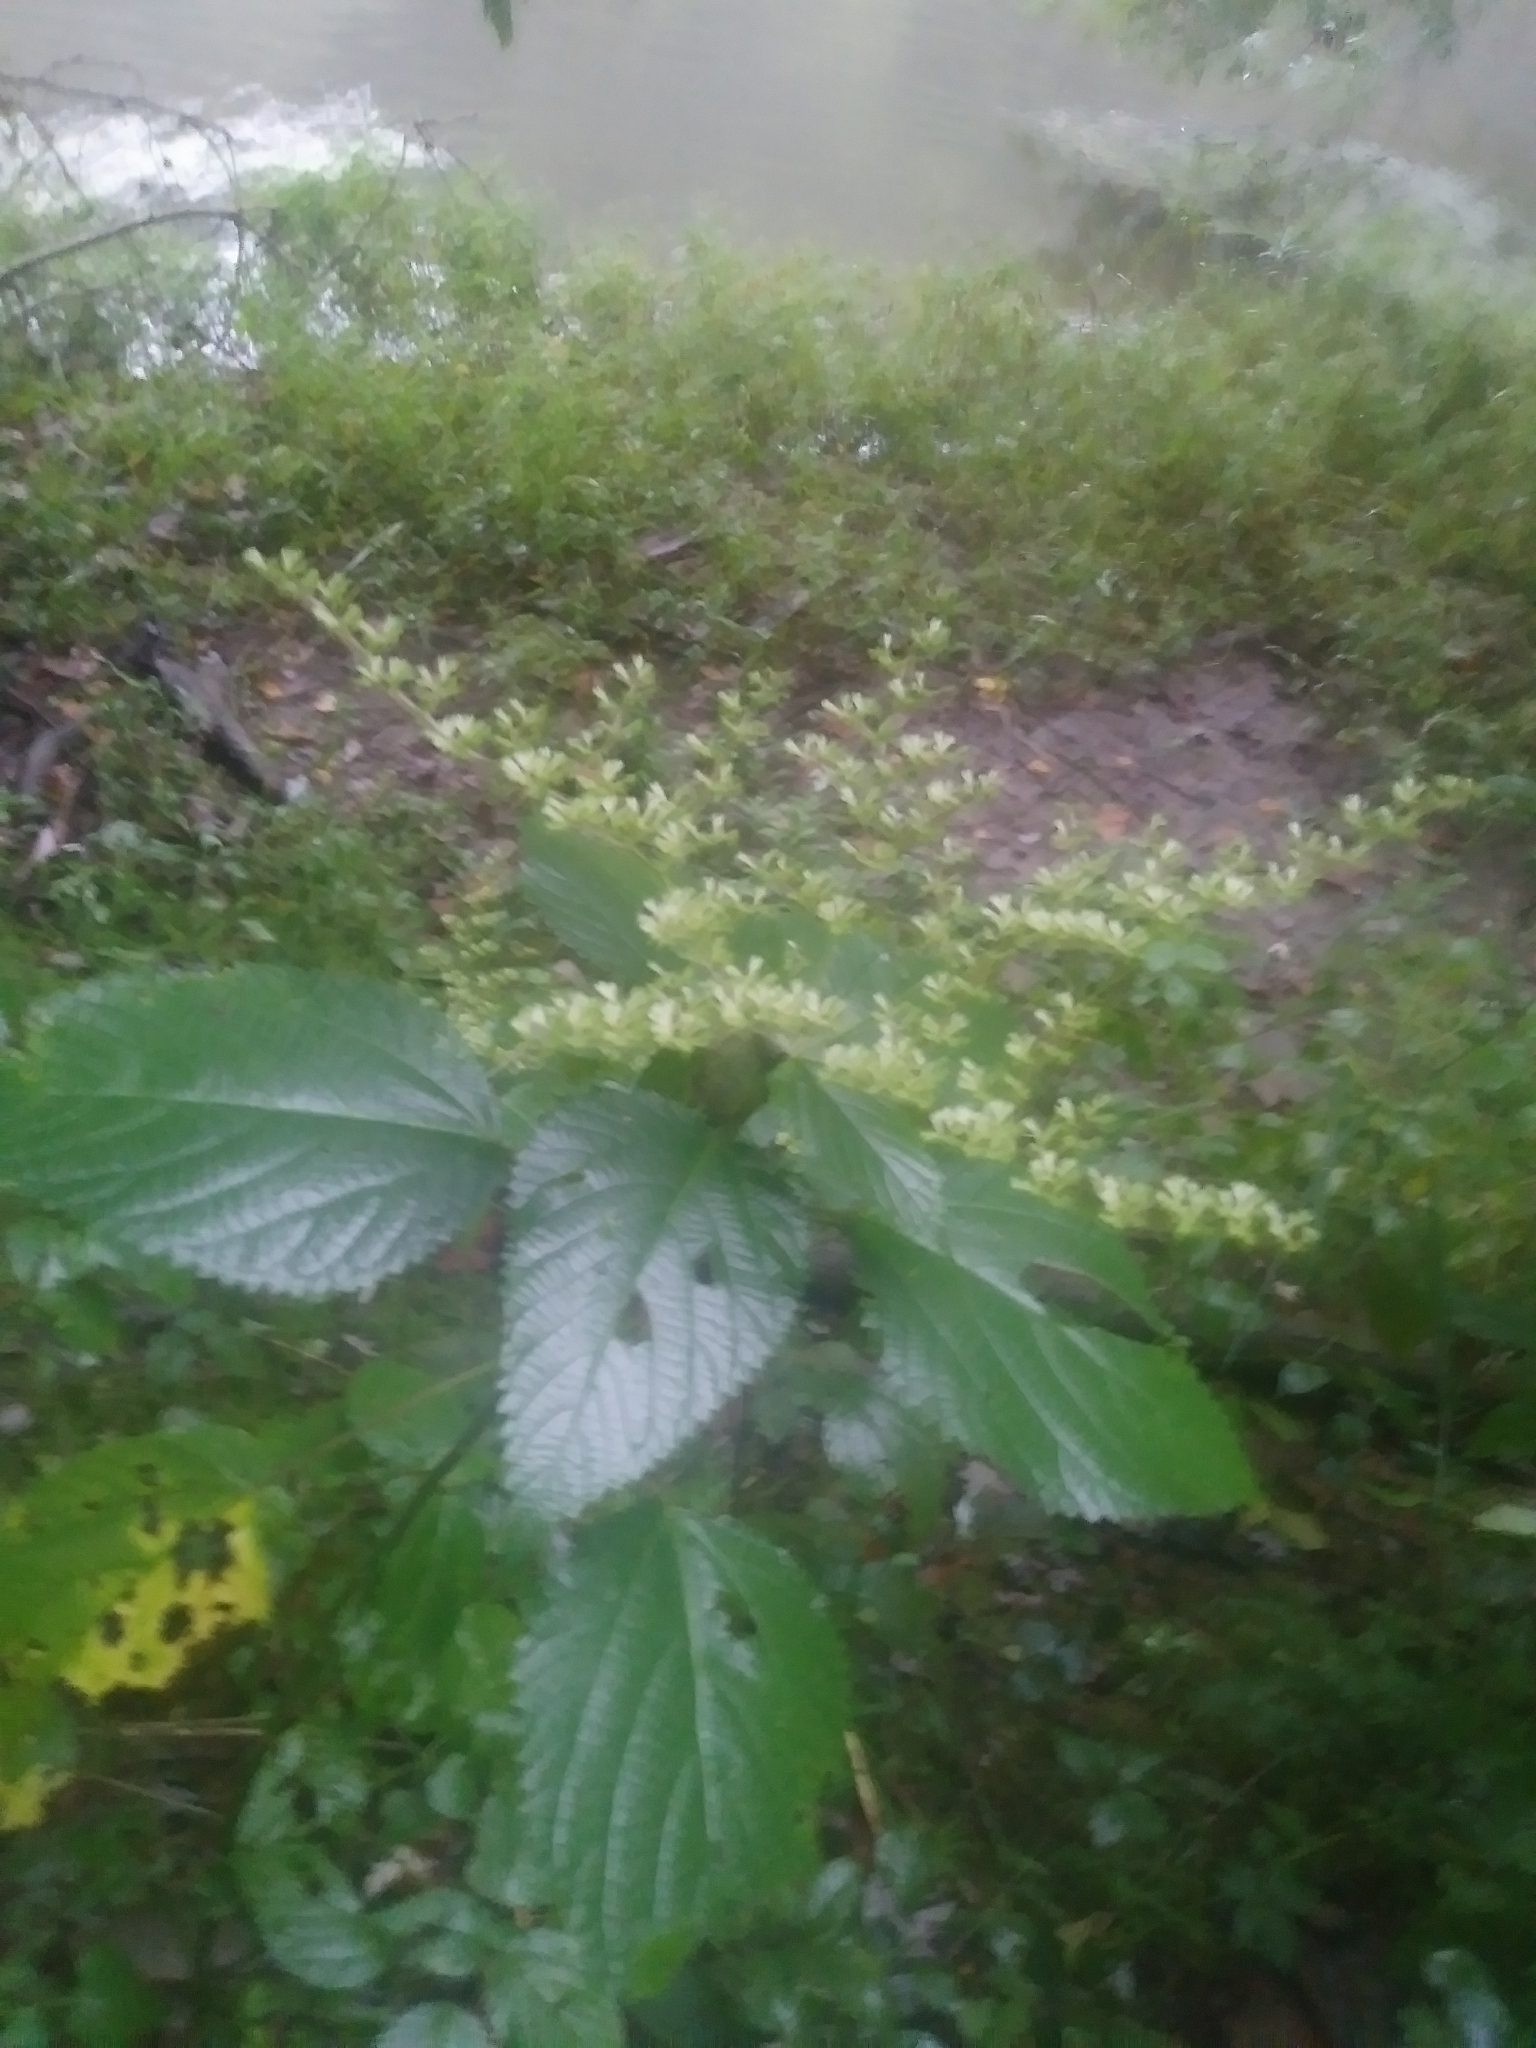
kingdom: Plantae
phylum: Tracheophyta
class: Magnoliopsida
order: Rosales
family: Urticaceae
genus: Laportea
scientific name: Laportea canadensis
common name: Canada nettle
